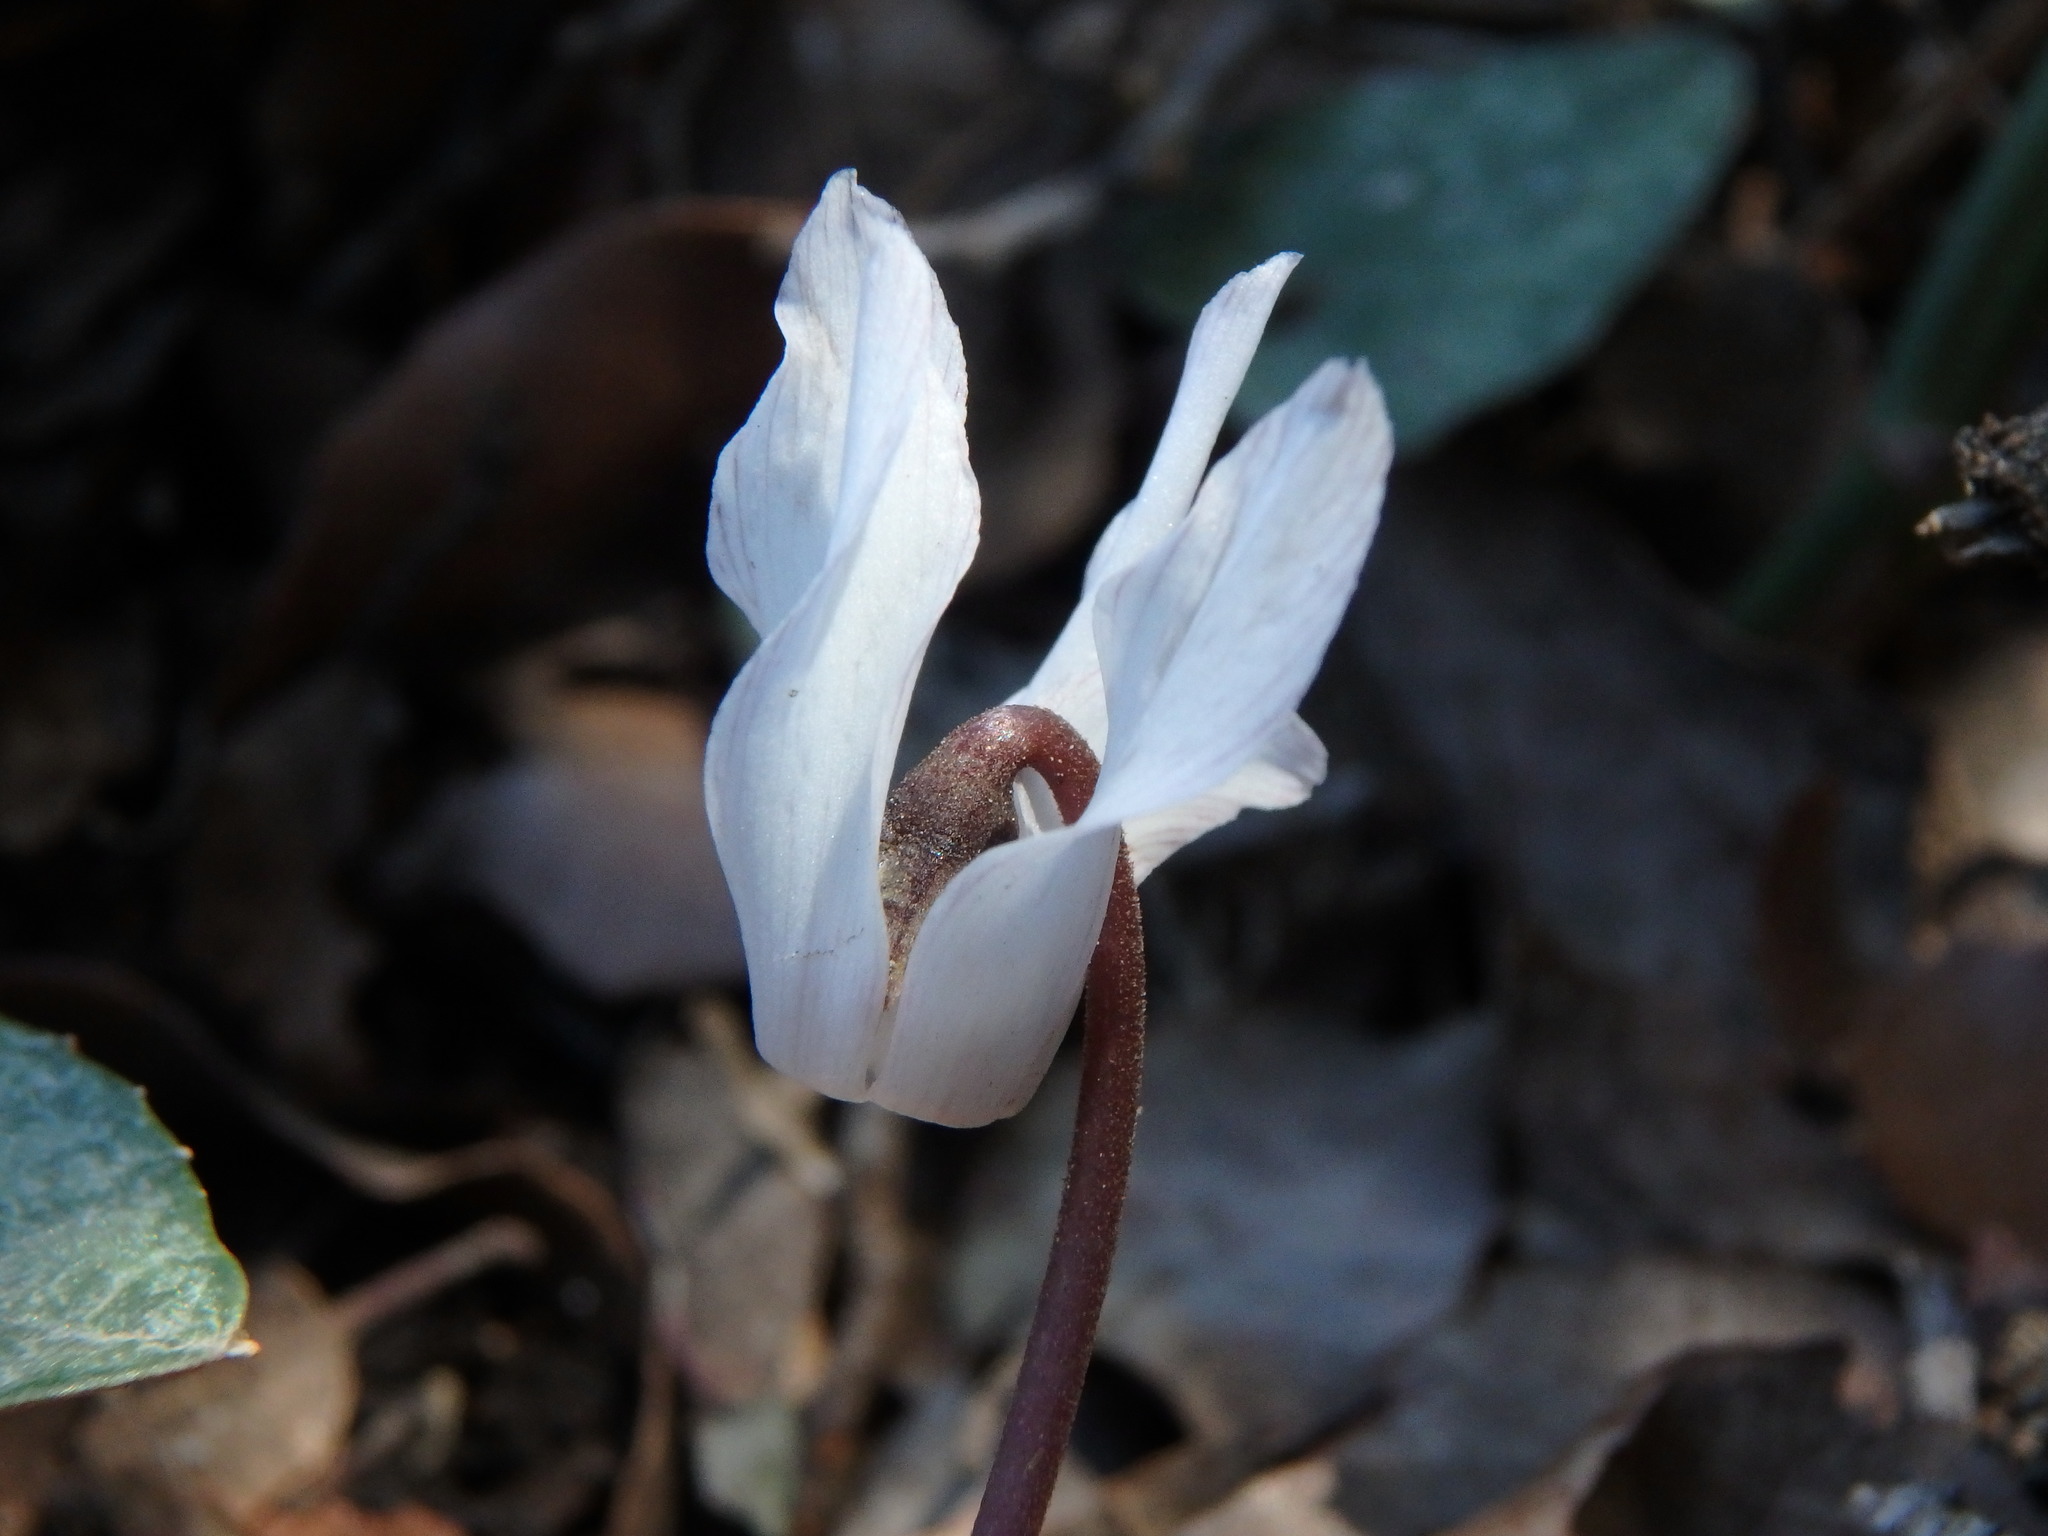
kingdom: Plantae
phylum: Tracheophyta
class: Magnoliopsida
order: Ericales
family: Primulaceae
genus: Cyclamen
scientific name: Cyclamen balearicum
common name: Majorca cyclamen
